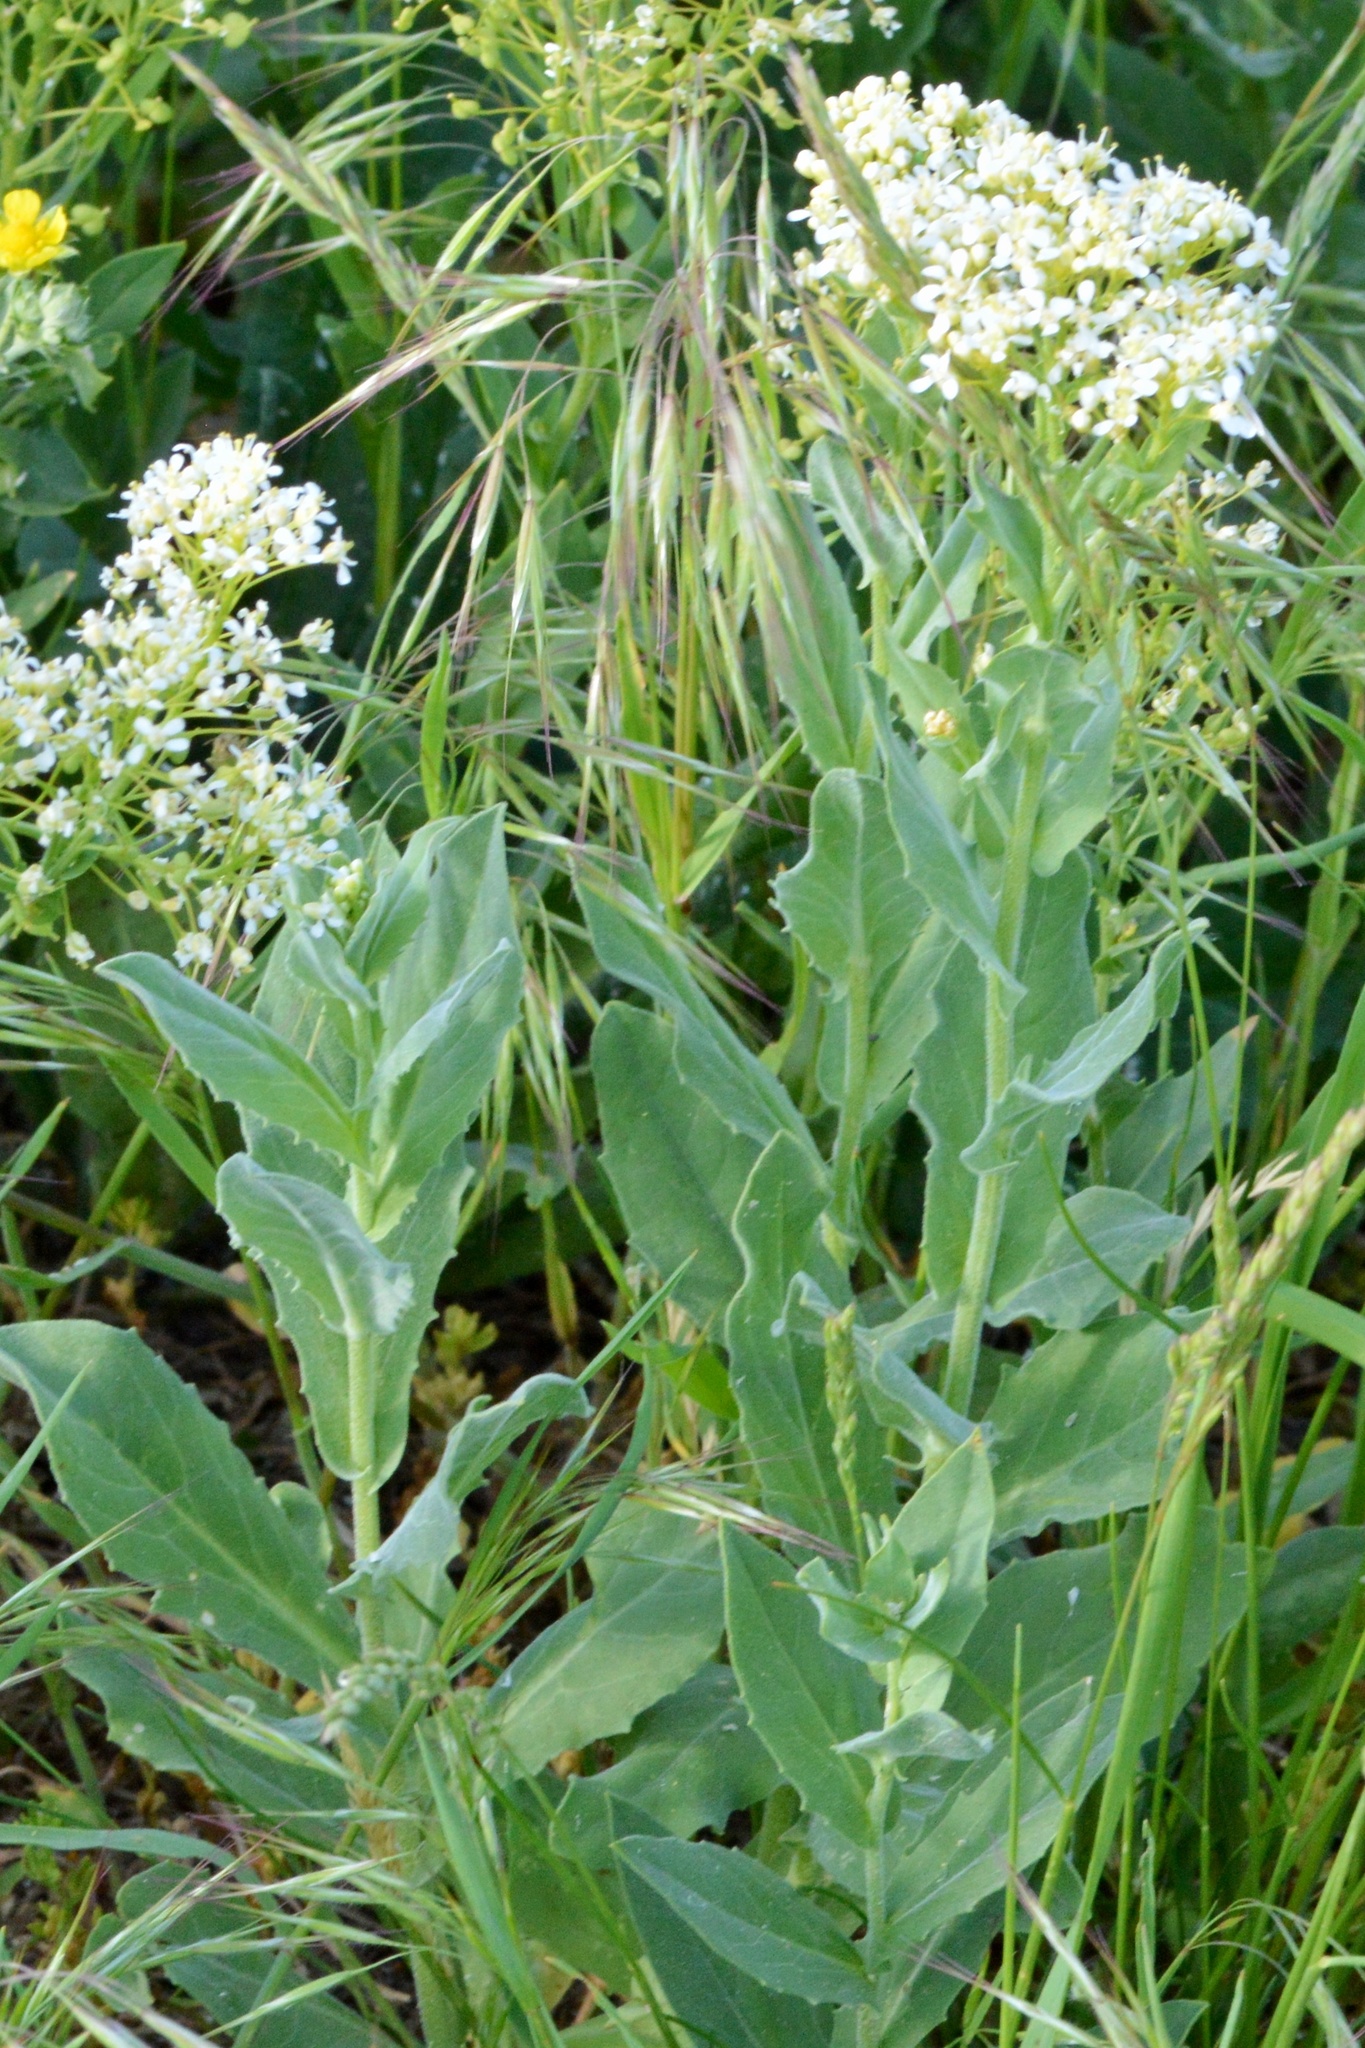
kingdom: Plantae
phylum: Tracheophyta
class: Magnoliopsida
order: Brassicales
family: Brassicaceae
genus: Lepidium
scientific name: Lepidium draba
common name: Hoary cress
